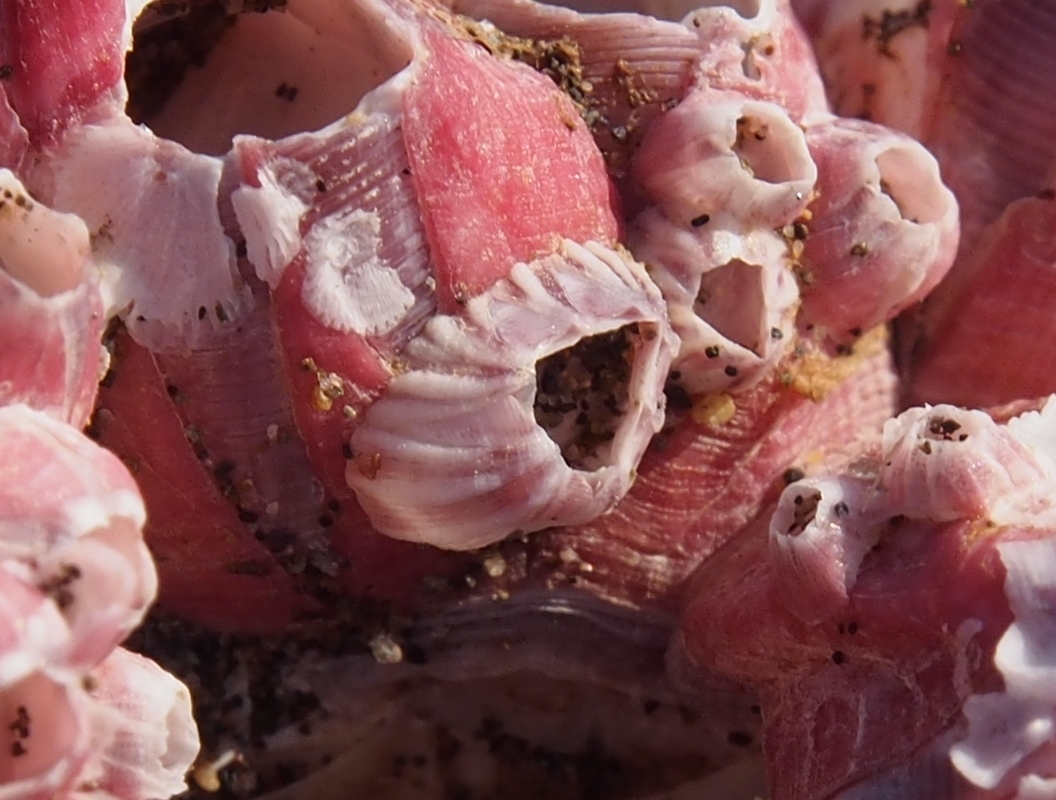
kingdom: Animalia
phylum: Arthropoda
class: Maxillopoda
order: Sessilia
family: Balanidae
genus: Balanus
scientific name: Balanus trigonus
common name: Triangle barnacle
